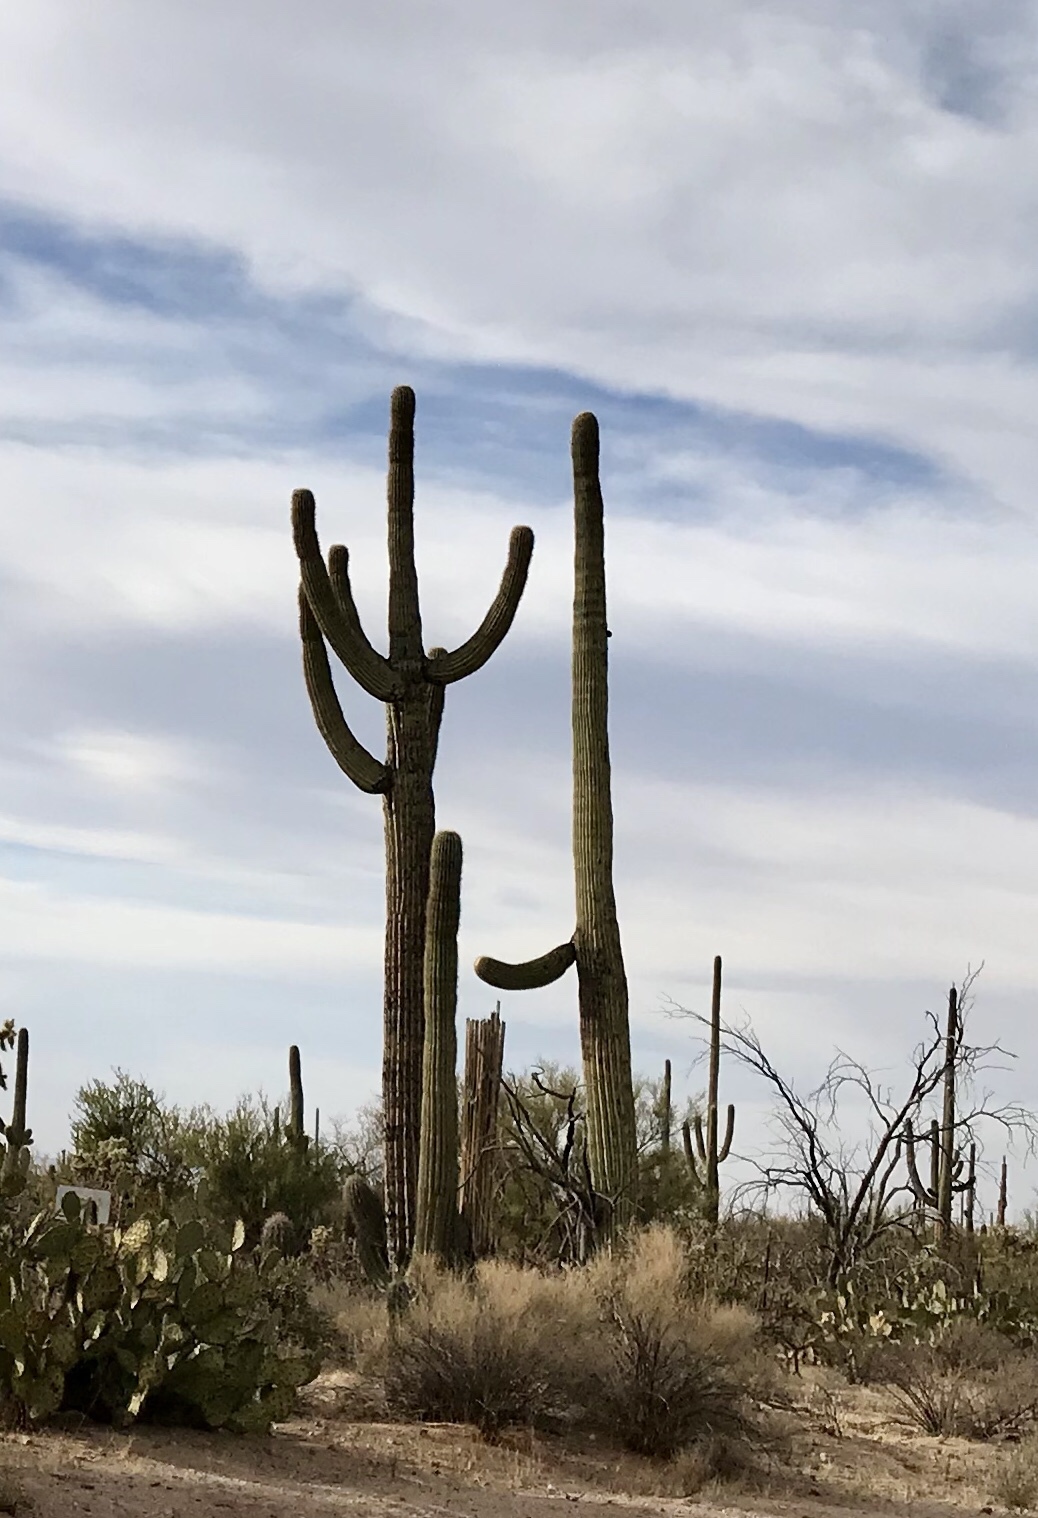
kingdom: Plantae
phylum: Tracheophyta
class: Magnoliopsida
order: Caryophyllales
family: Cactaceae
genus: Carnegiea
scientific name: Carnegiea gigantea
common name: Saguaro
